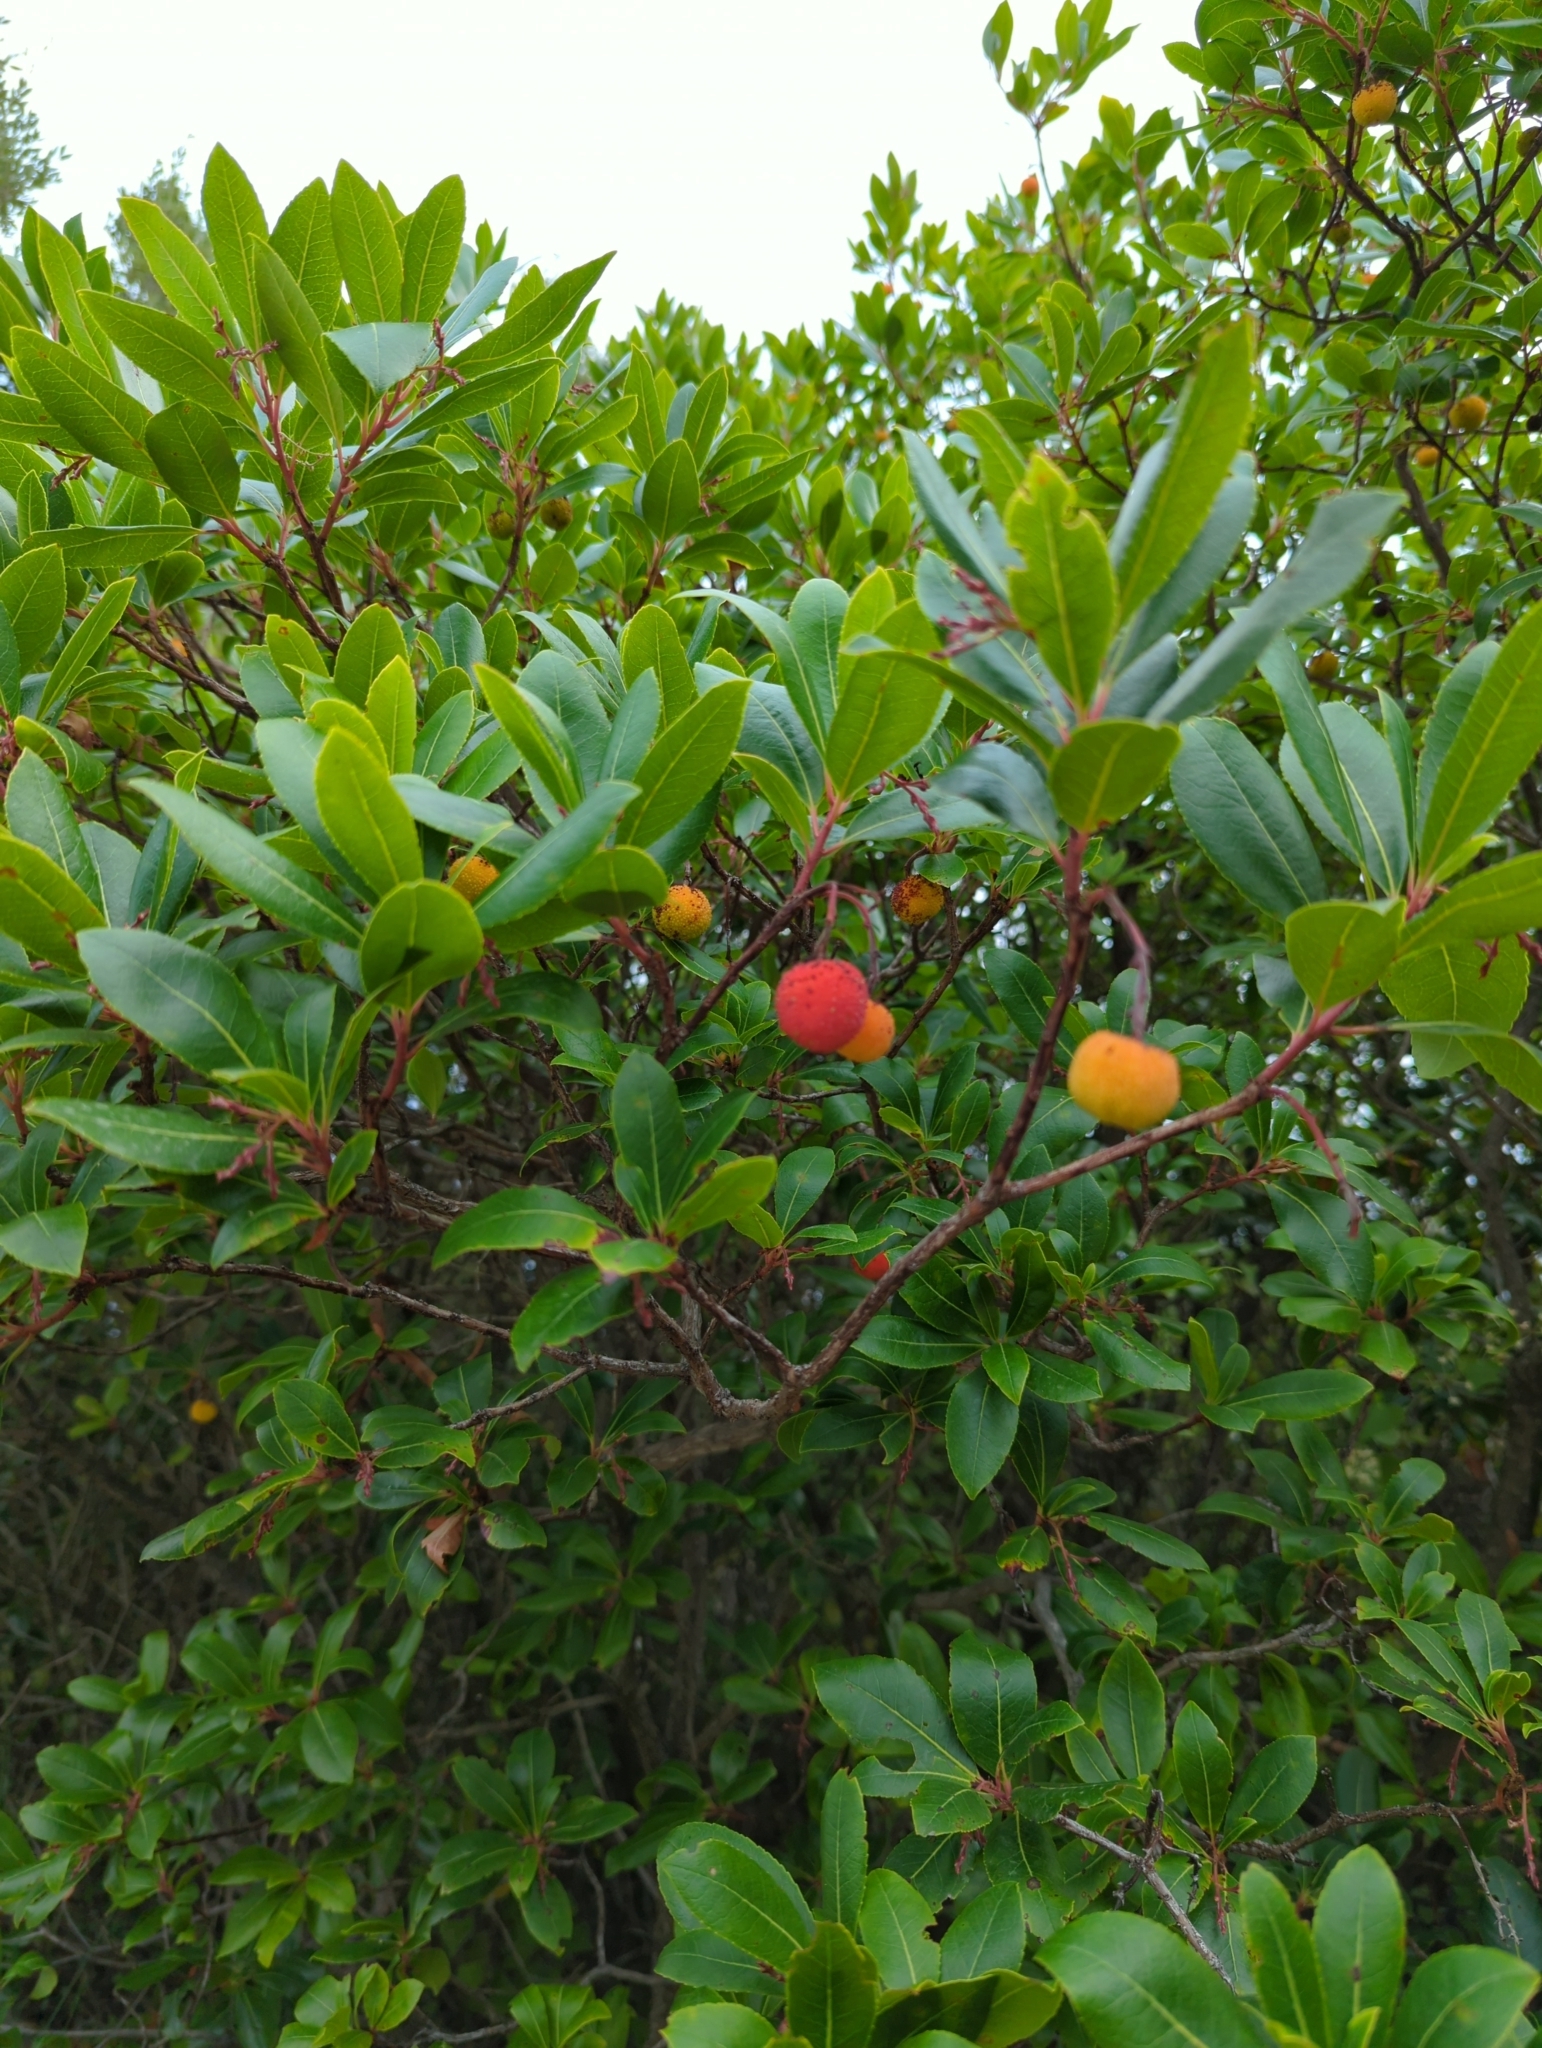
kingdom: Plantae
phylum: Tracheophyta
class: Magnoliopsida
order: Ericales
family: Ericaceae
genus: Arbutus
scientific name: Arbutus unedo
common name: Strawberry-tree
